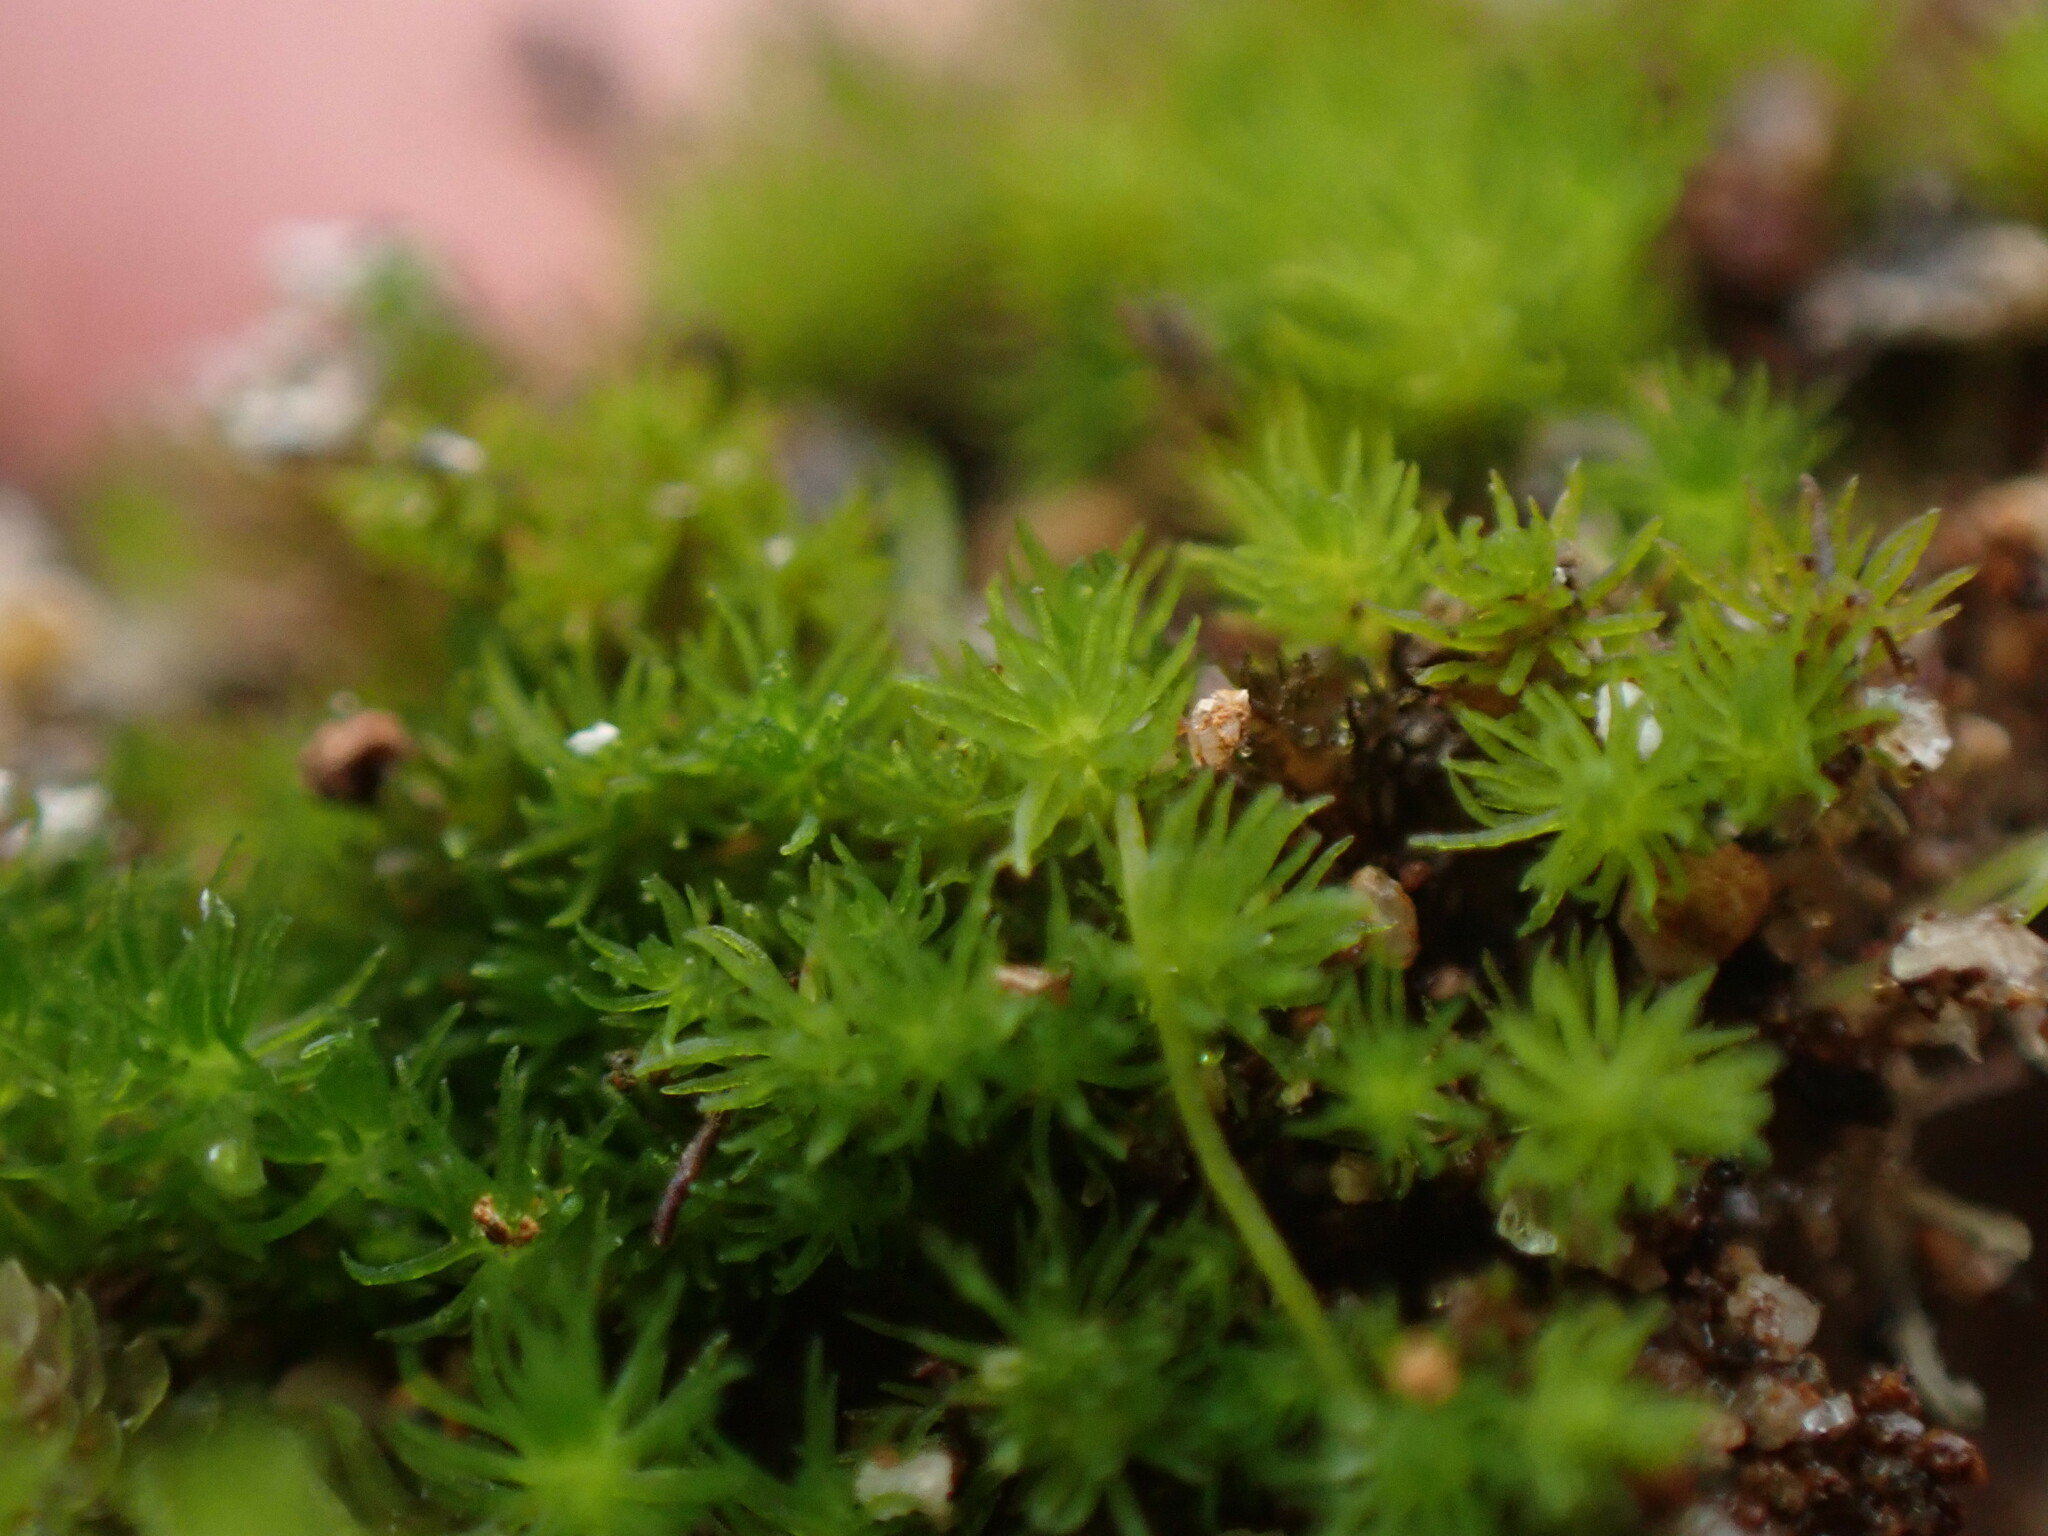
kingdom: Plantae
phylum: Bryophyta
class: Takakiopsida
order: Takakiales
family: Takakiaceae
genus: Takakia
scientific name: Takakia lepidozioides
